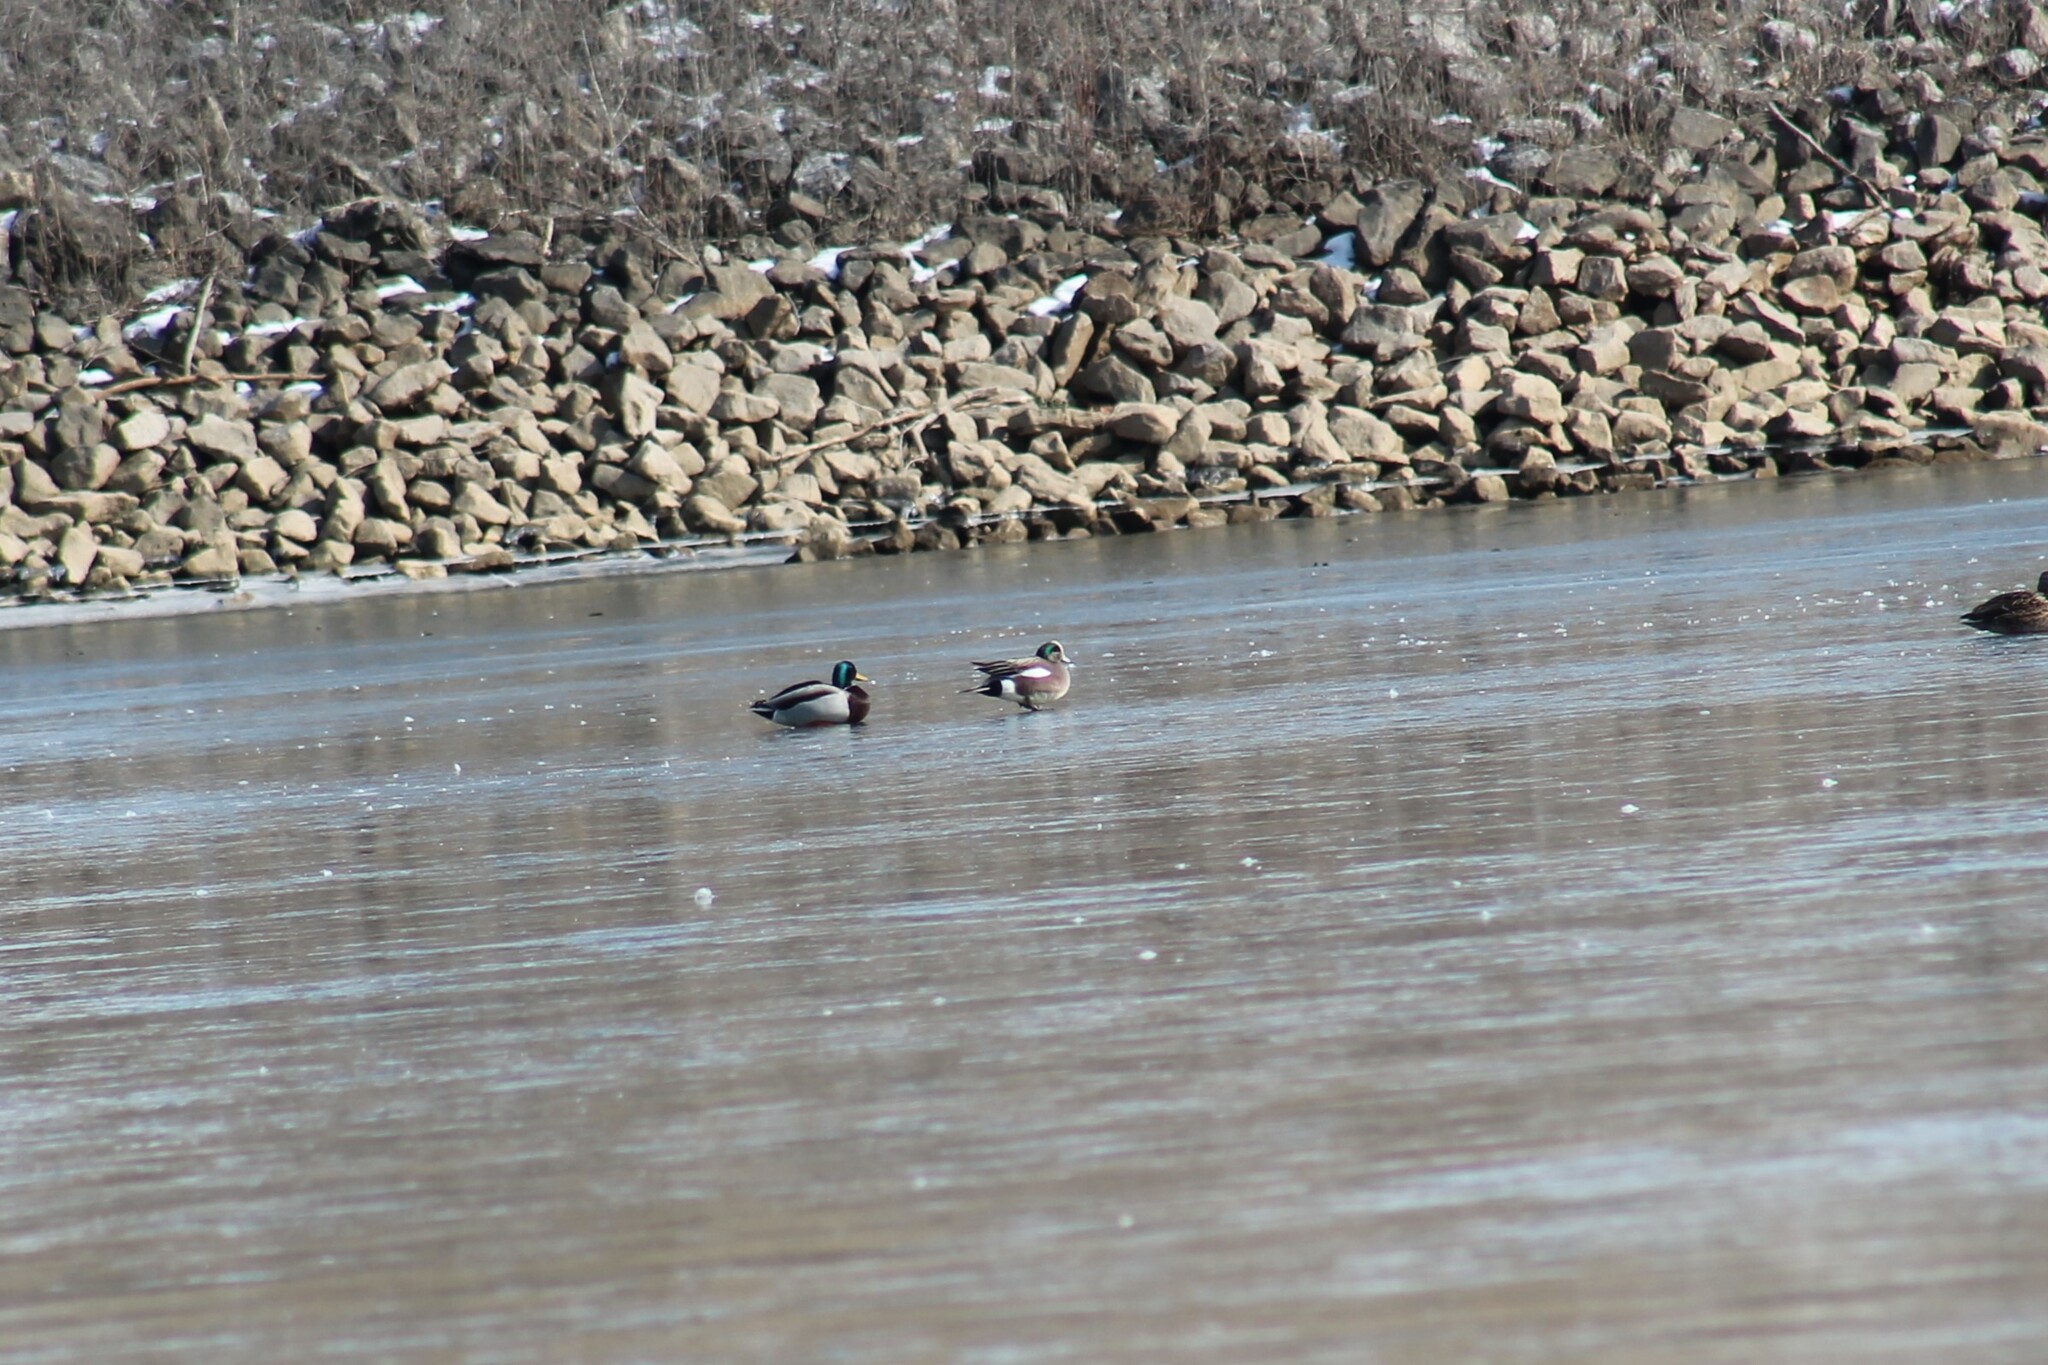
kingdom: Animalia
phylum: Chordata
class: Aves
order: Anseriformes
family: Anatidae
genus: Mareca
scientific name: Mareca americana
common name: American wigeon
